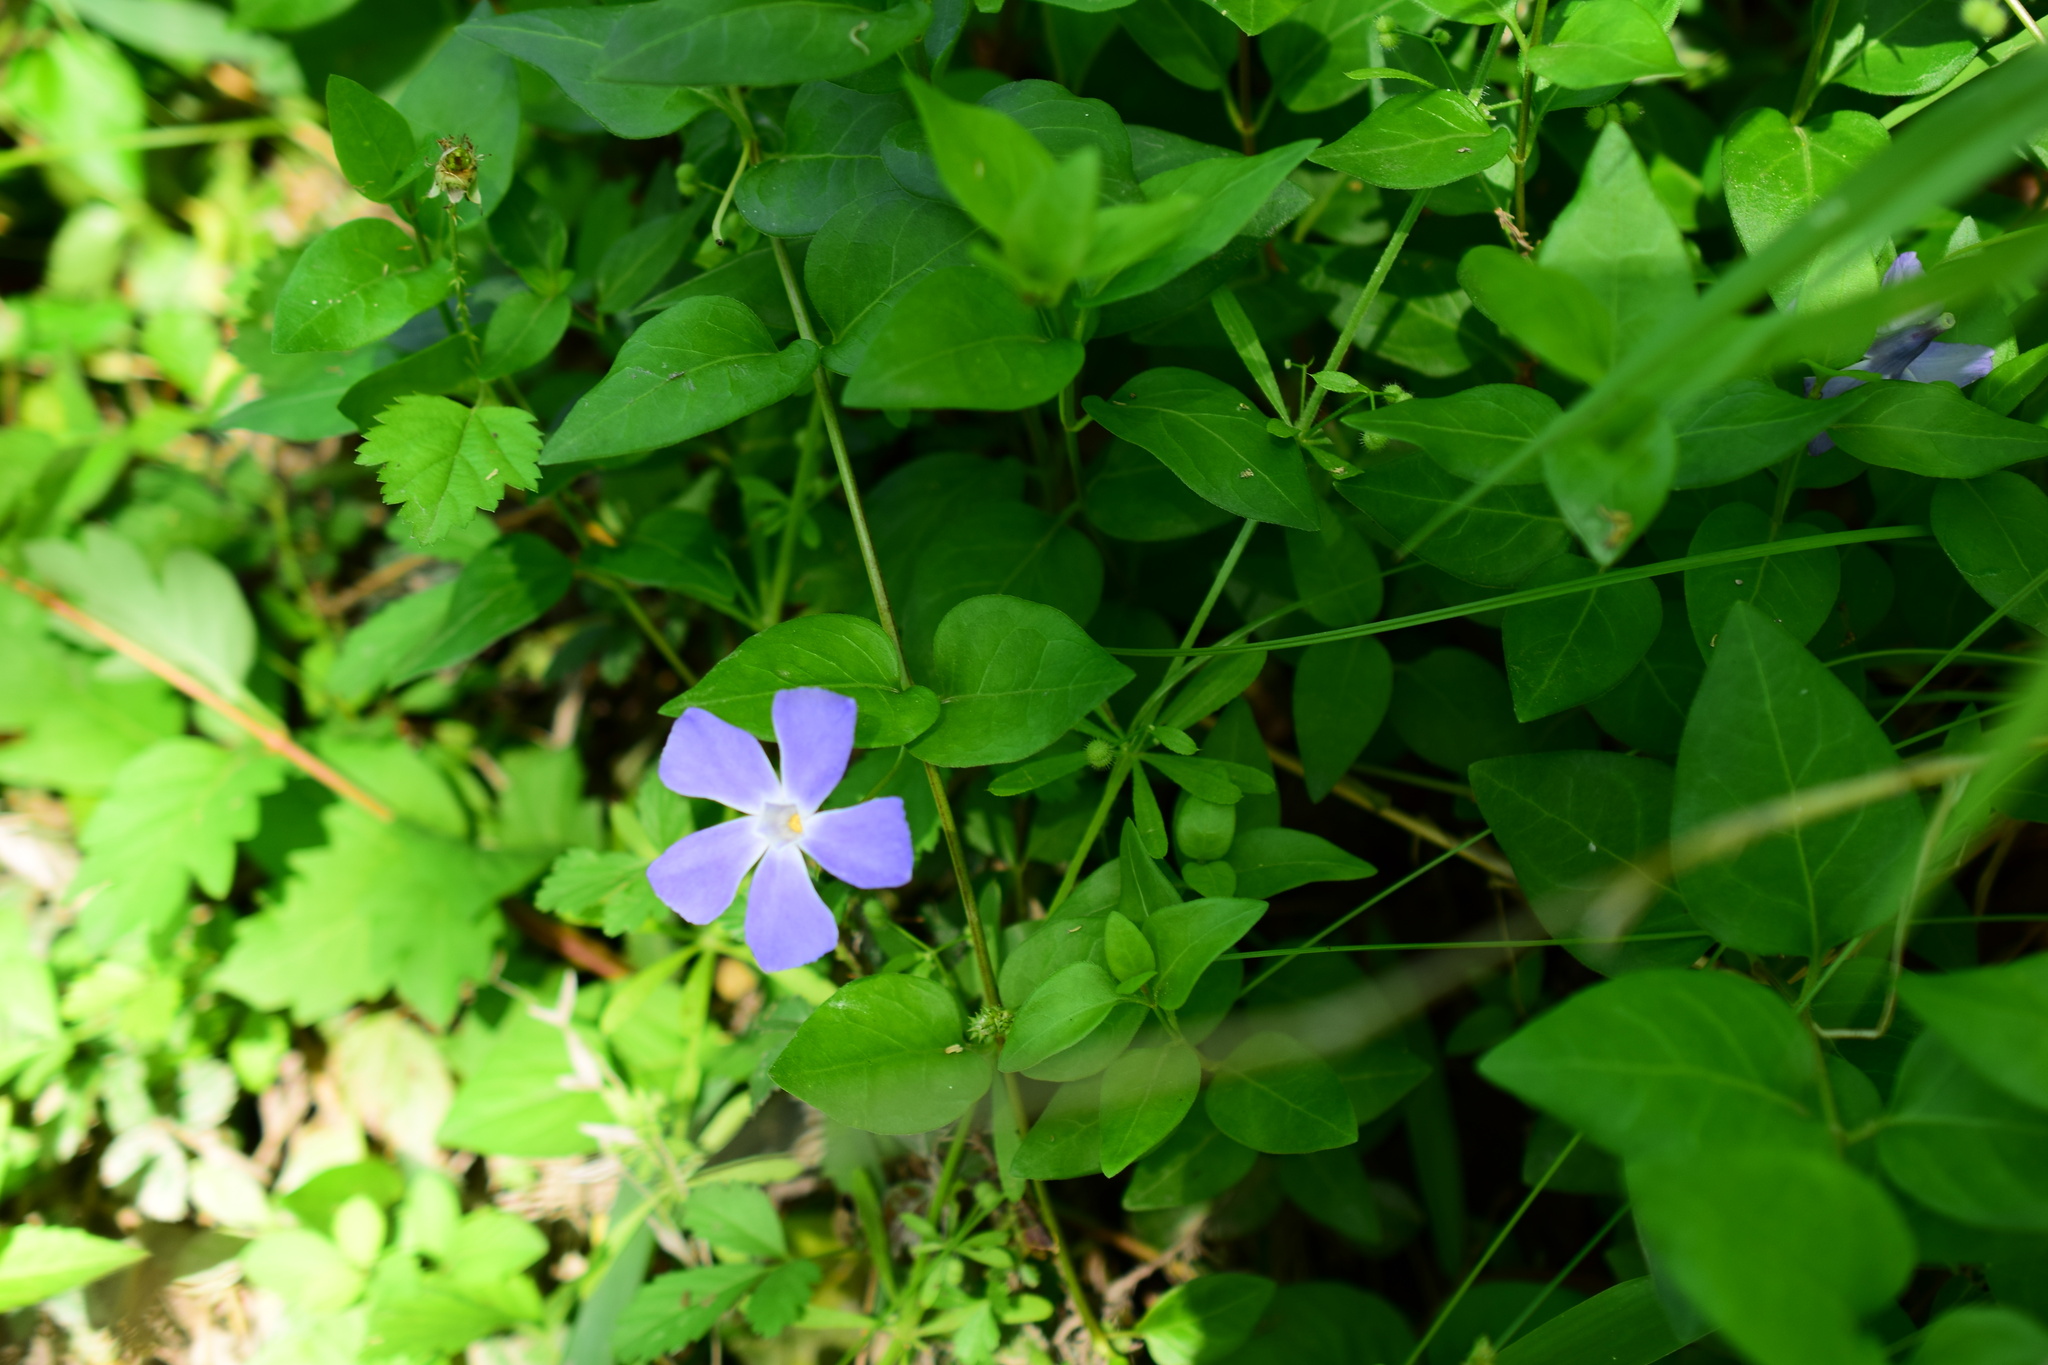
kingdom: Plantae
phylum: Tracheophyta
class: Magnoliopsida
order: Gentianales
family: Apocynaceae
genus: Vinca
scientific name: Vinca major
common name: Greater periwinkle
